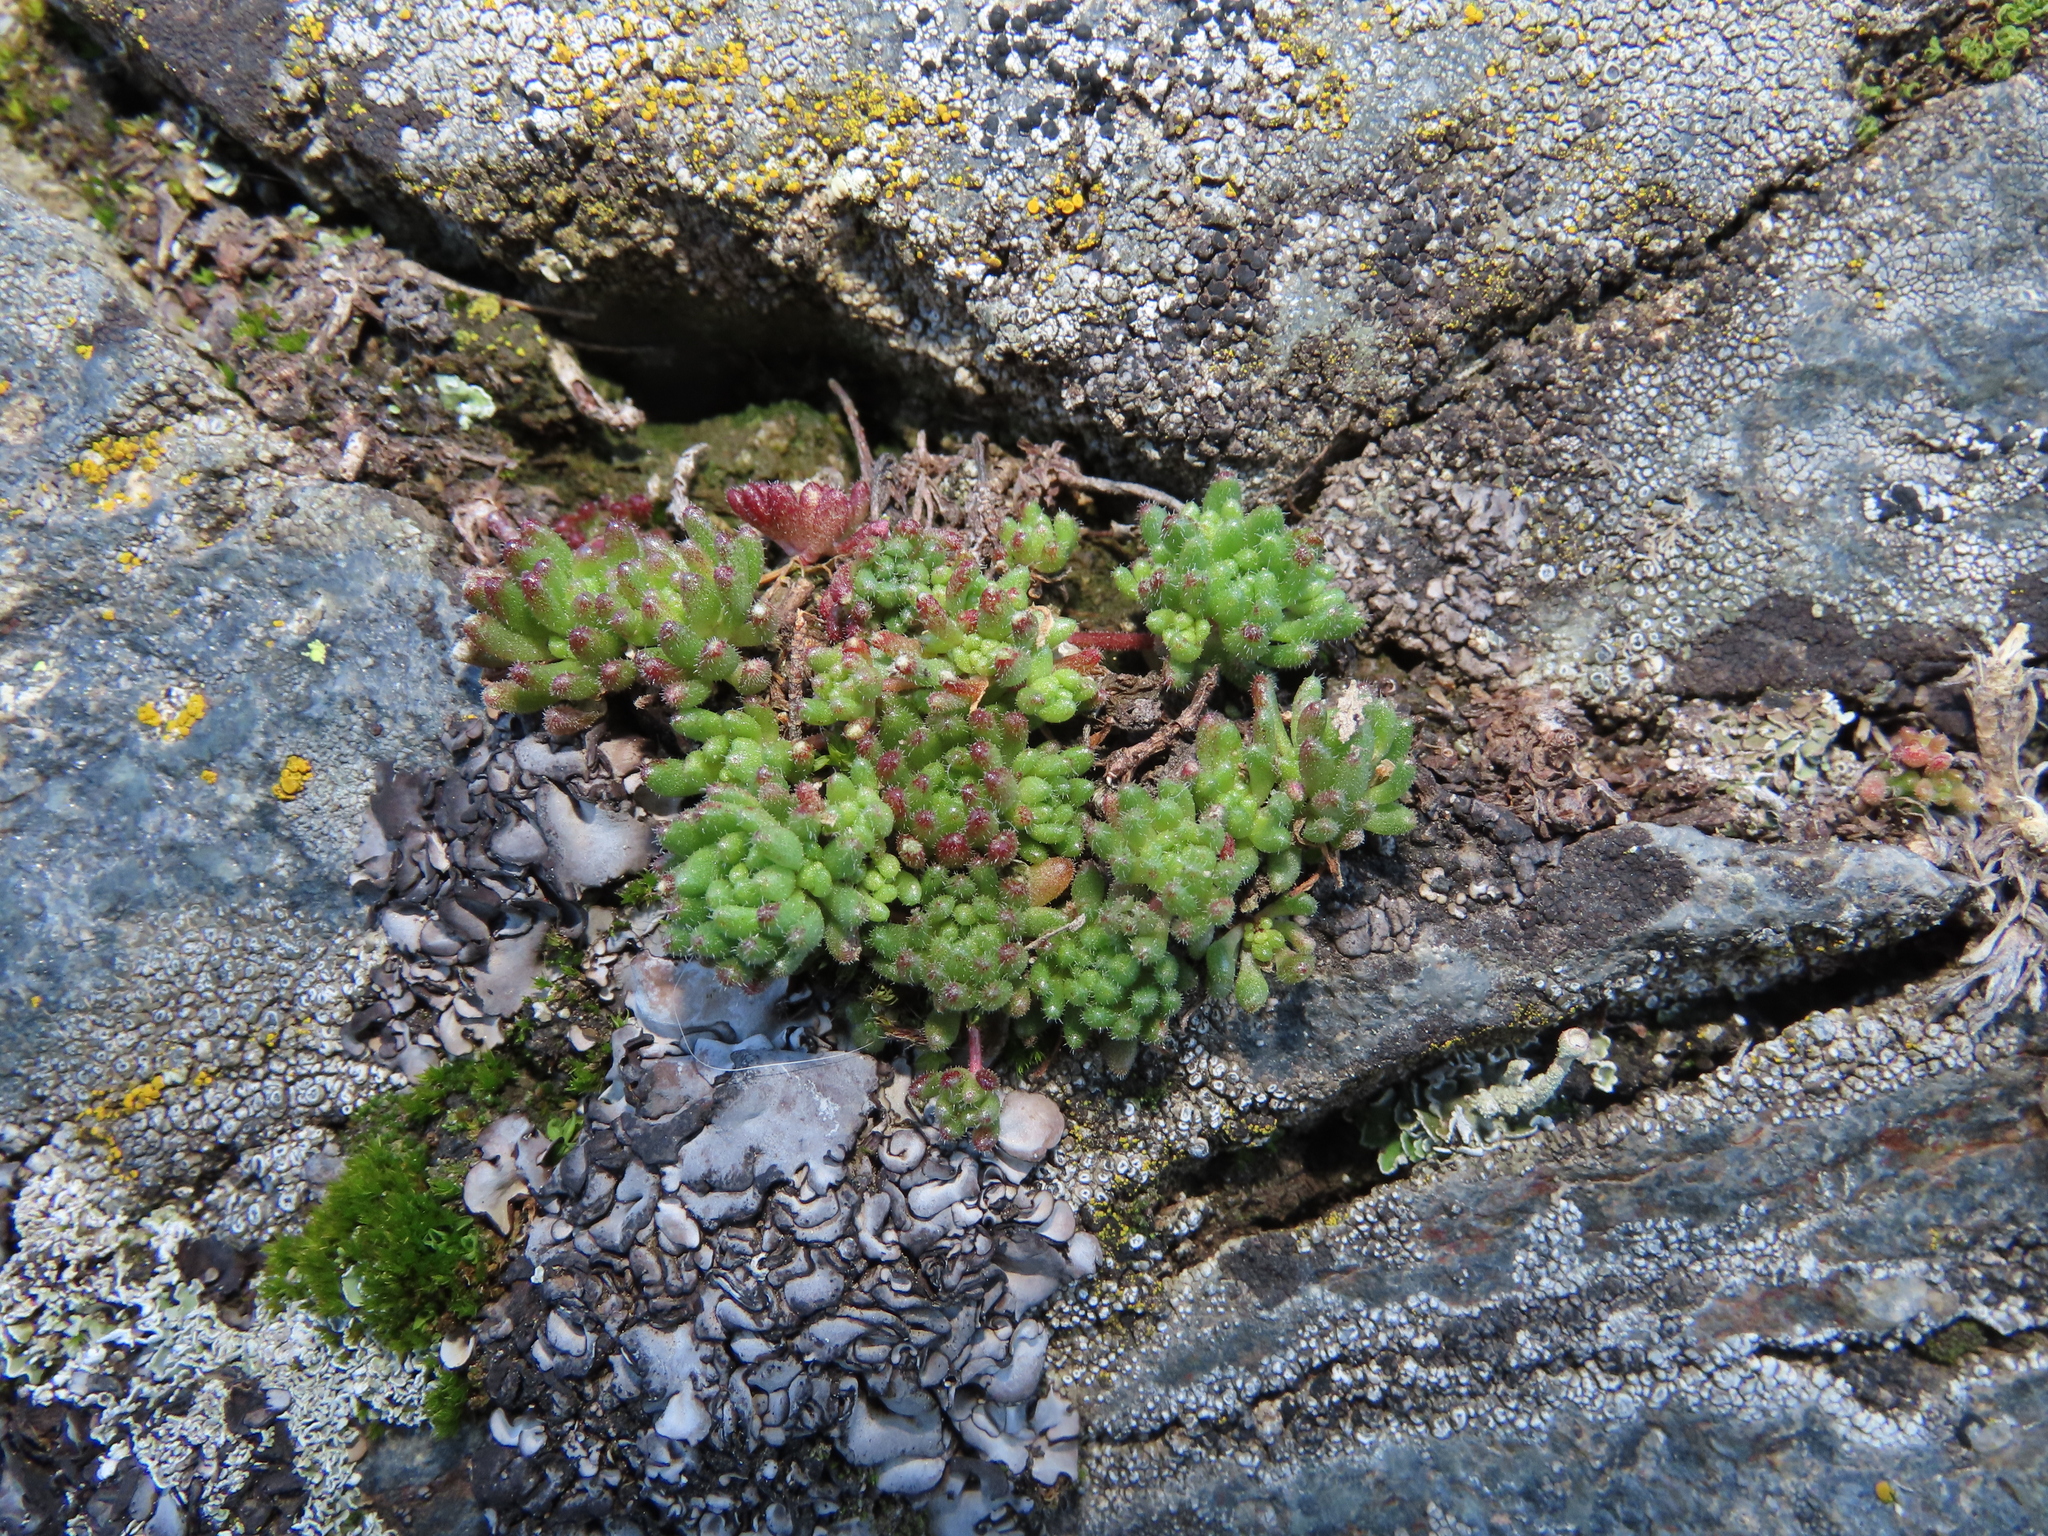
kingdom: Plantae
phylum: Tracheophyta
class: Magnoliopsida
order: Saxifragales
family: Crassulaceae
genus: Sedum
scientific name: Sedum hirsutum
